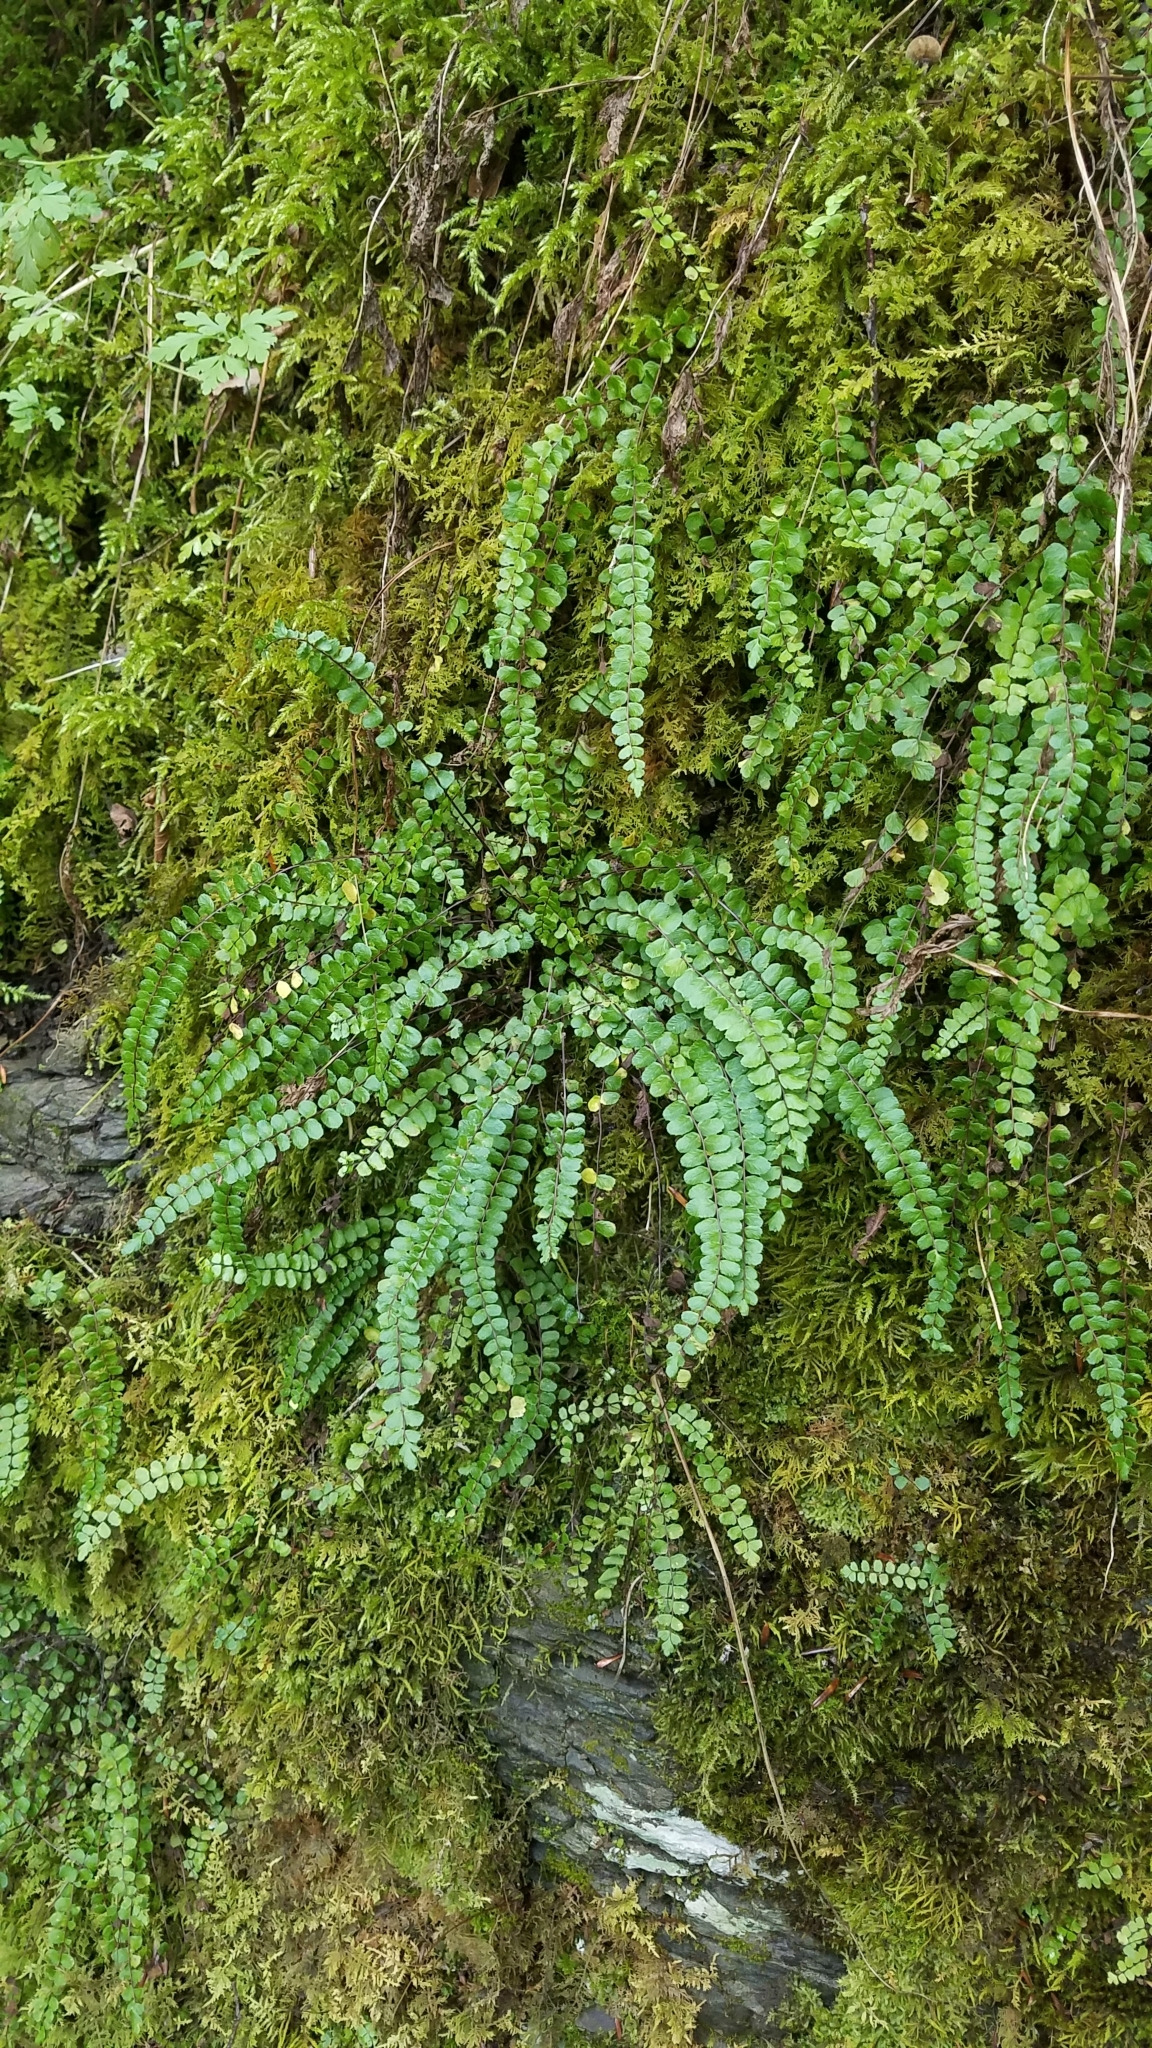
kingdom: Plantae
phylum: Tracheophyta
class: Polypodiopsida
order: Polypodiales
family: Aspleniaceae
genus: Asplenium
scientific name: Asplenium trichomanes
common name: Maidenhair spleenwort
